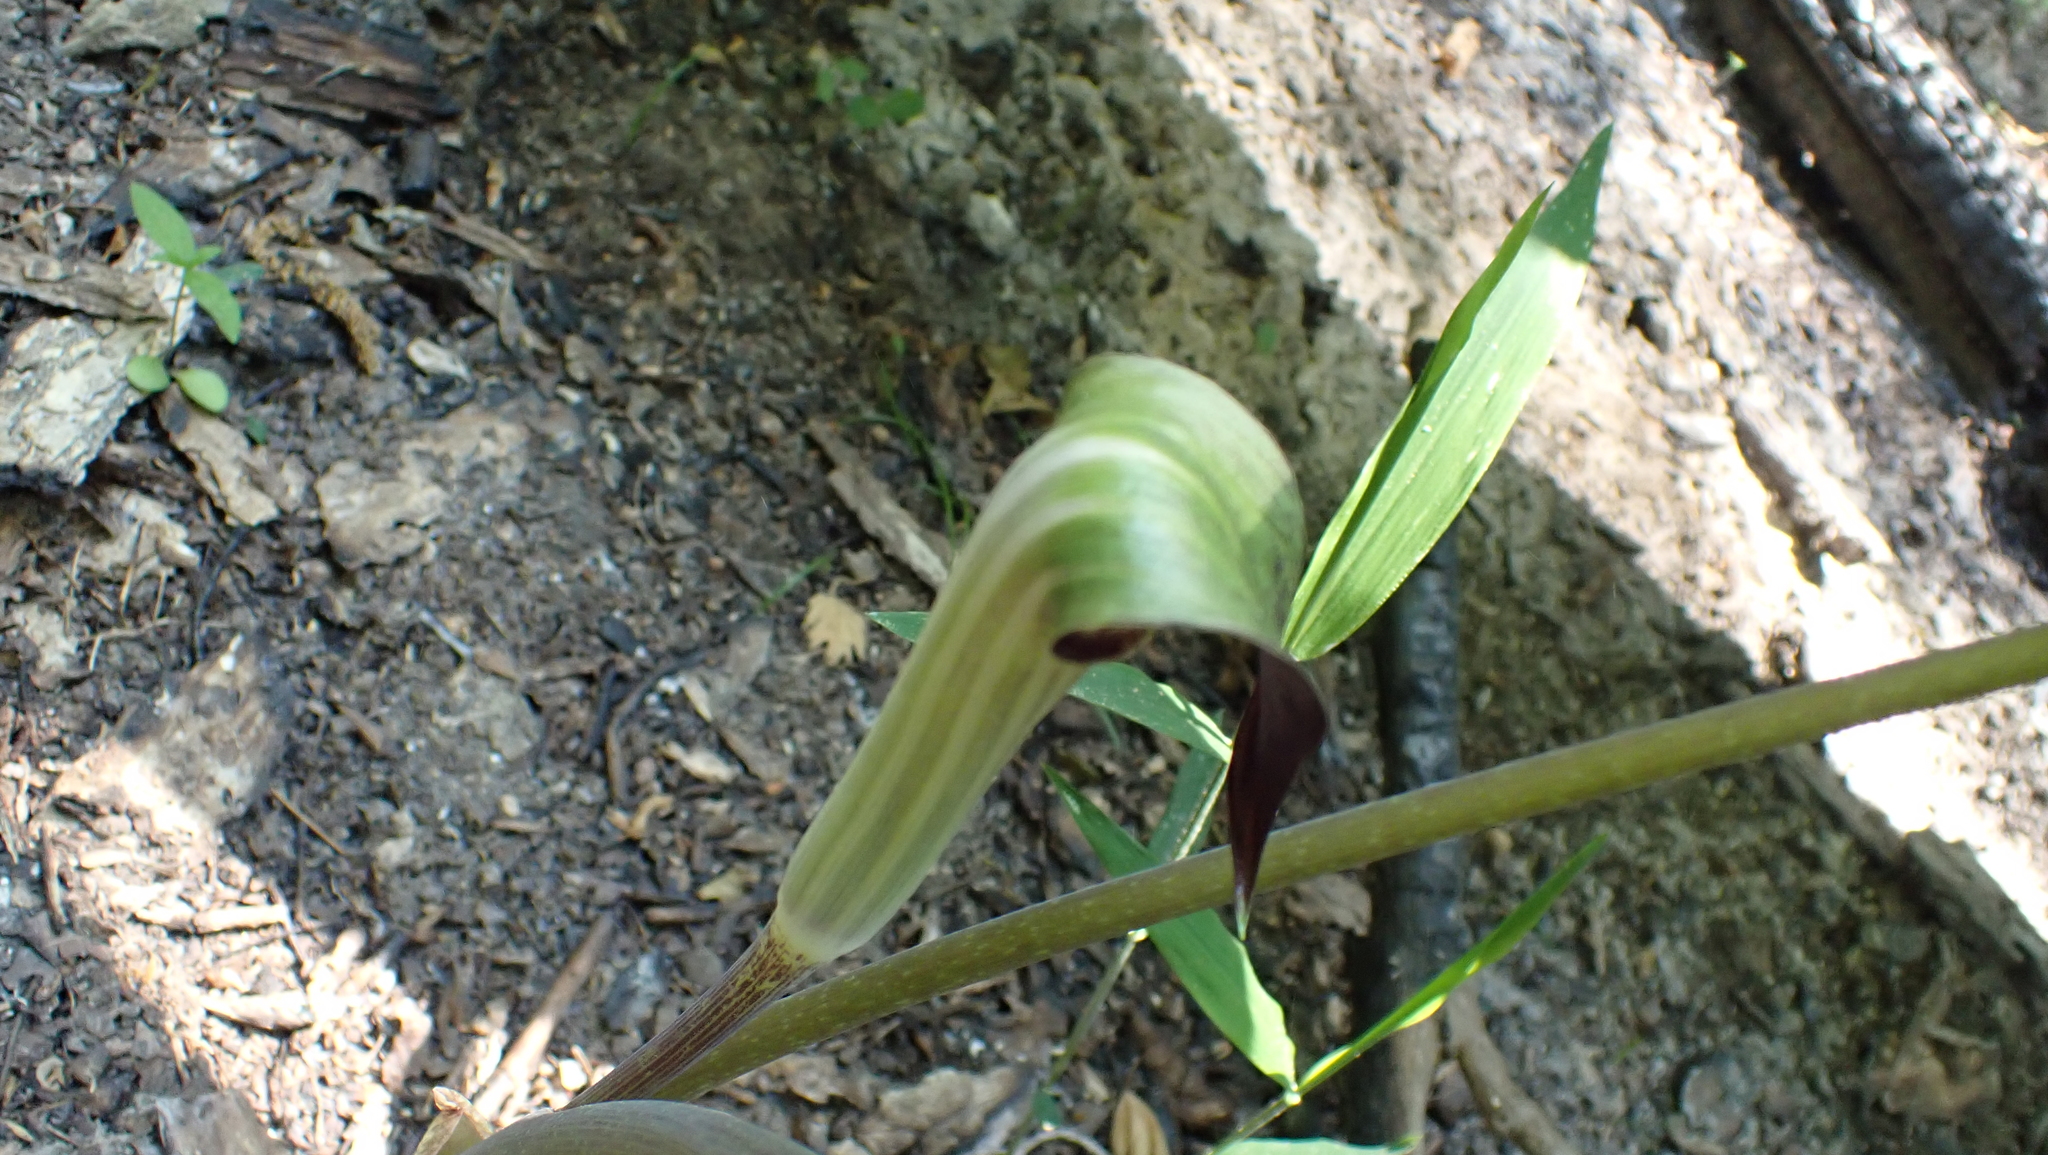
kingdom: Plantae
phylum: Tracheophyta
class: Liliopsida
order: Alismatales
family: Araceae
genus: Arisaema
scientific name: Arisaema triphyllum
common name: Jack-in-the-pulpit
